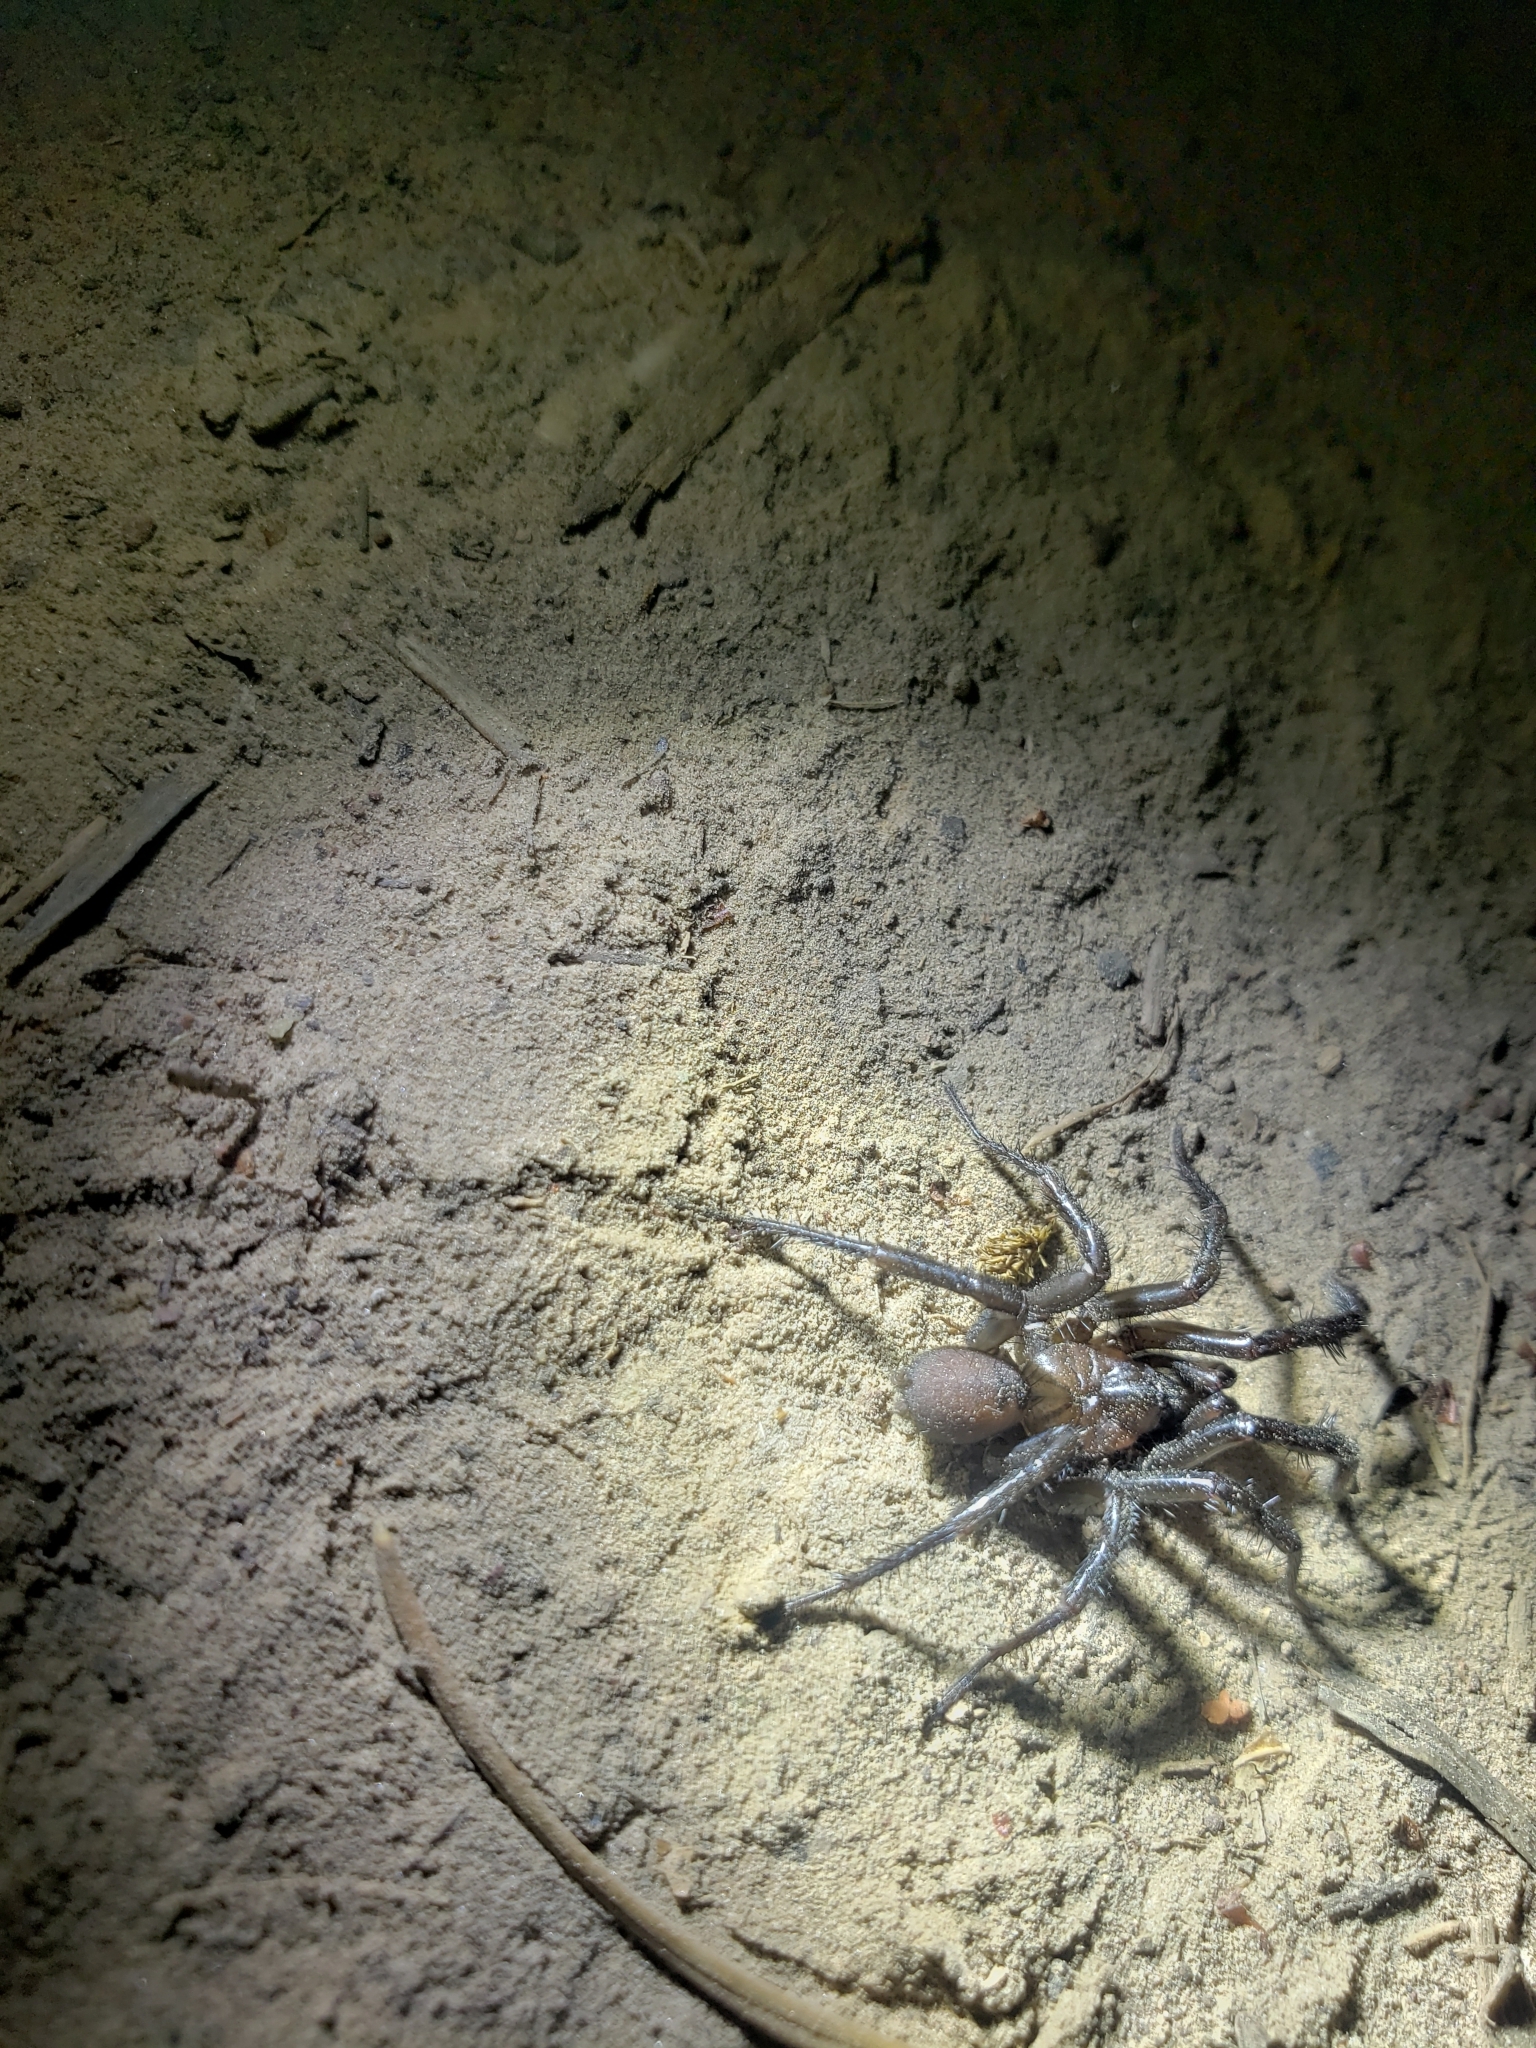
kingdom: Animalia
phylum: Arthropoda
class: Arachnida
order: Araneae
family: Antrodiaetidae
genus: Antrodiaetus
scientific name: Antrodiaetus pacificus
